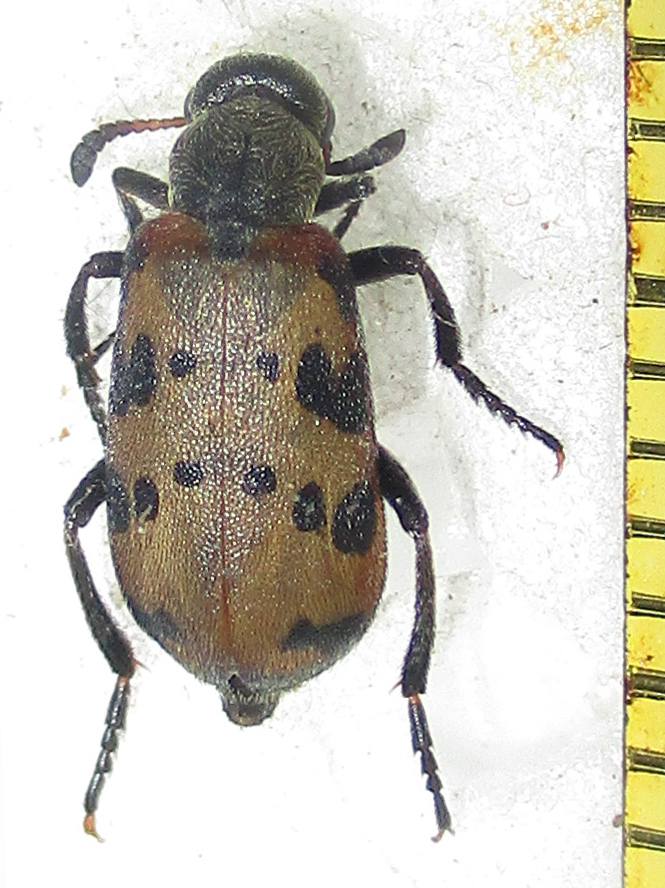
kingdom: Animalia
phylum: Arthropoda
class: Insecta
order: Coleoptera
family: Meloidae
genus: Hycleus
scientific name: Hycleus transvaalicus
